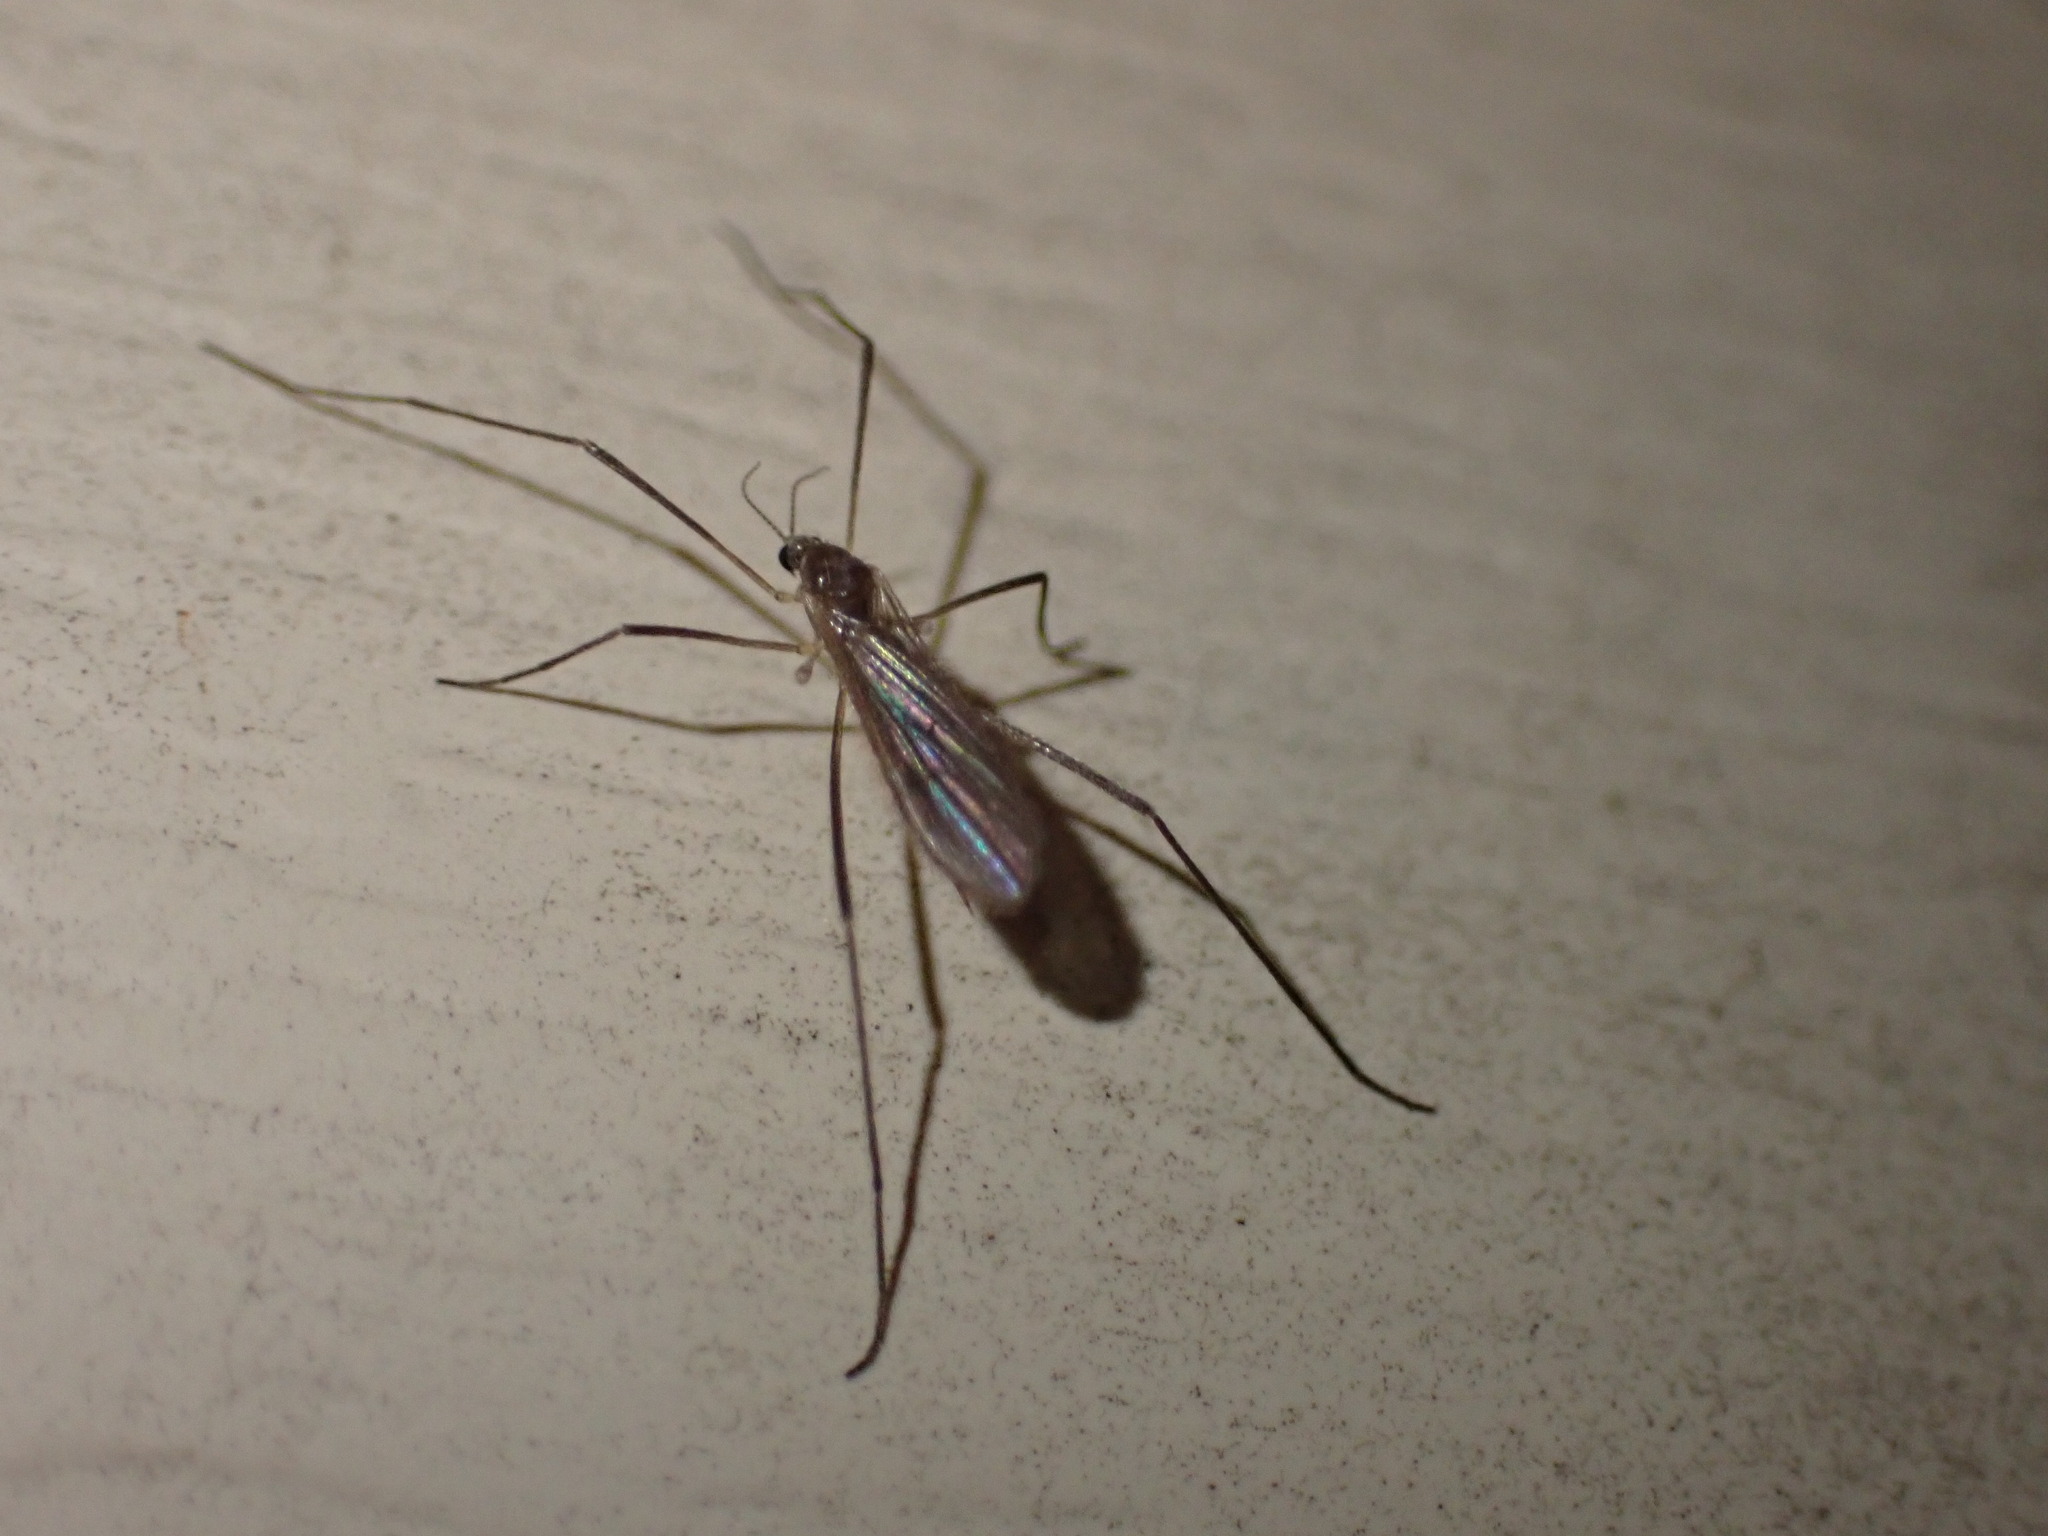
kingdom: Animalia
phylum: Arthropoda
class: Insecta
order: Diptera
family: Limoniidae
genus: Molophilus
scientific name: Molophilus
